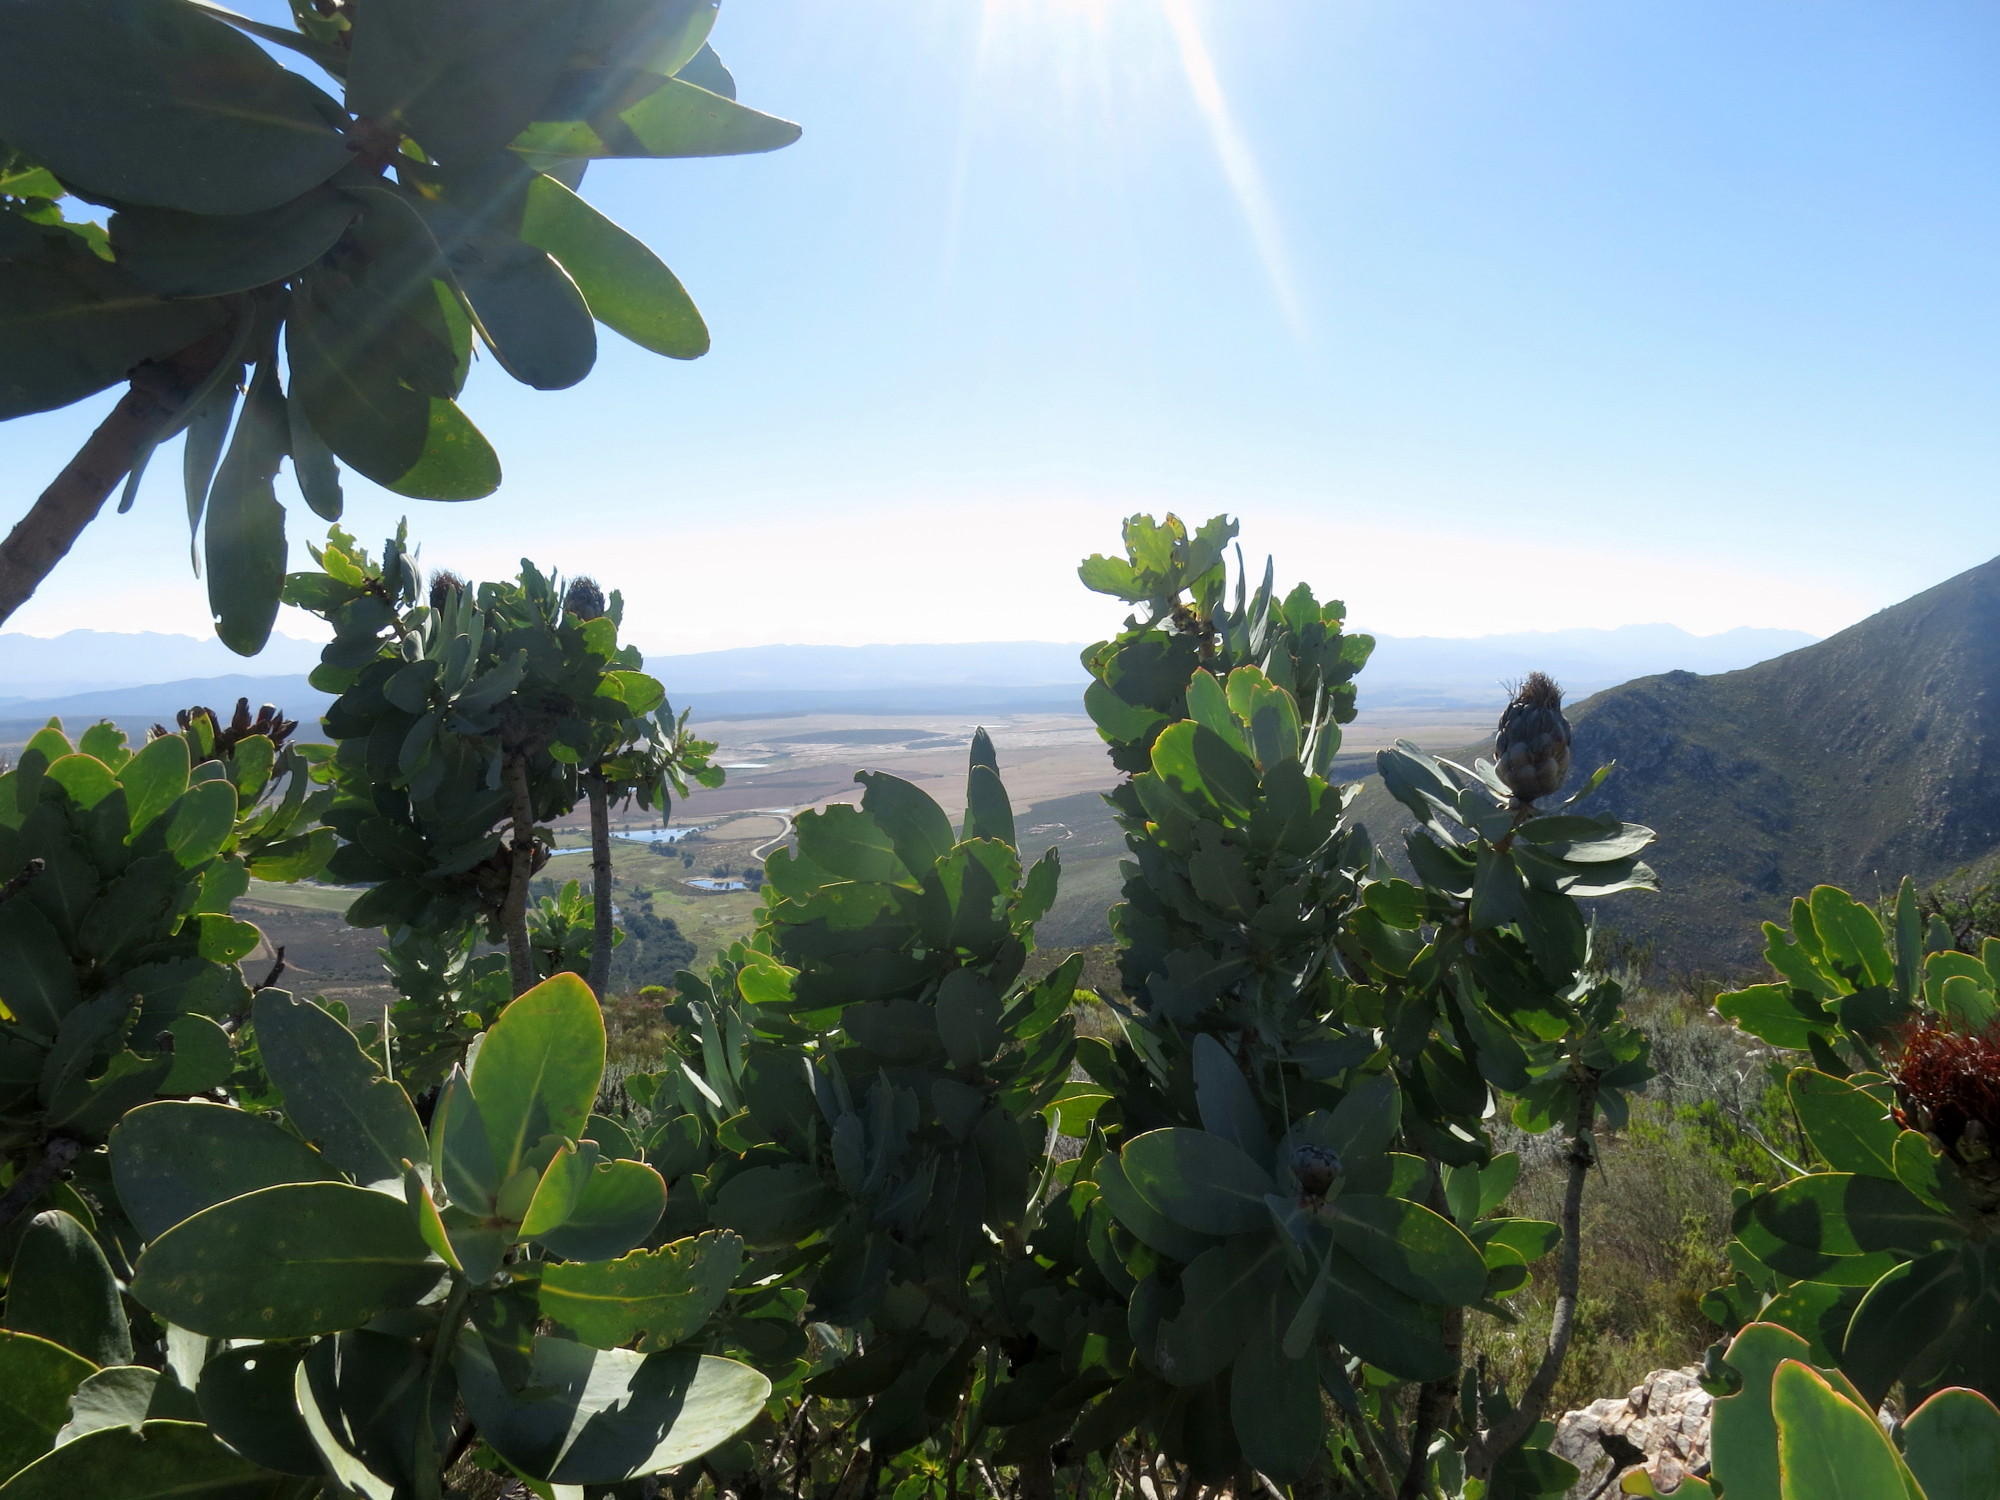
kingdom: Plantae
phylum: Tracheophyta
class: Magnoliopsida
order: Proteales
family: Proteaceae
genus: Protea
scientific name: Protea nitida
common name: Tree protea
